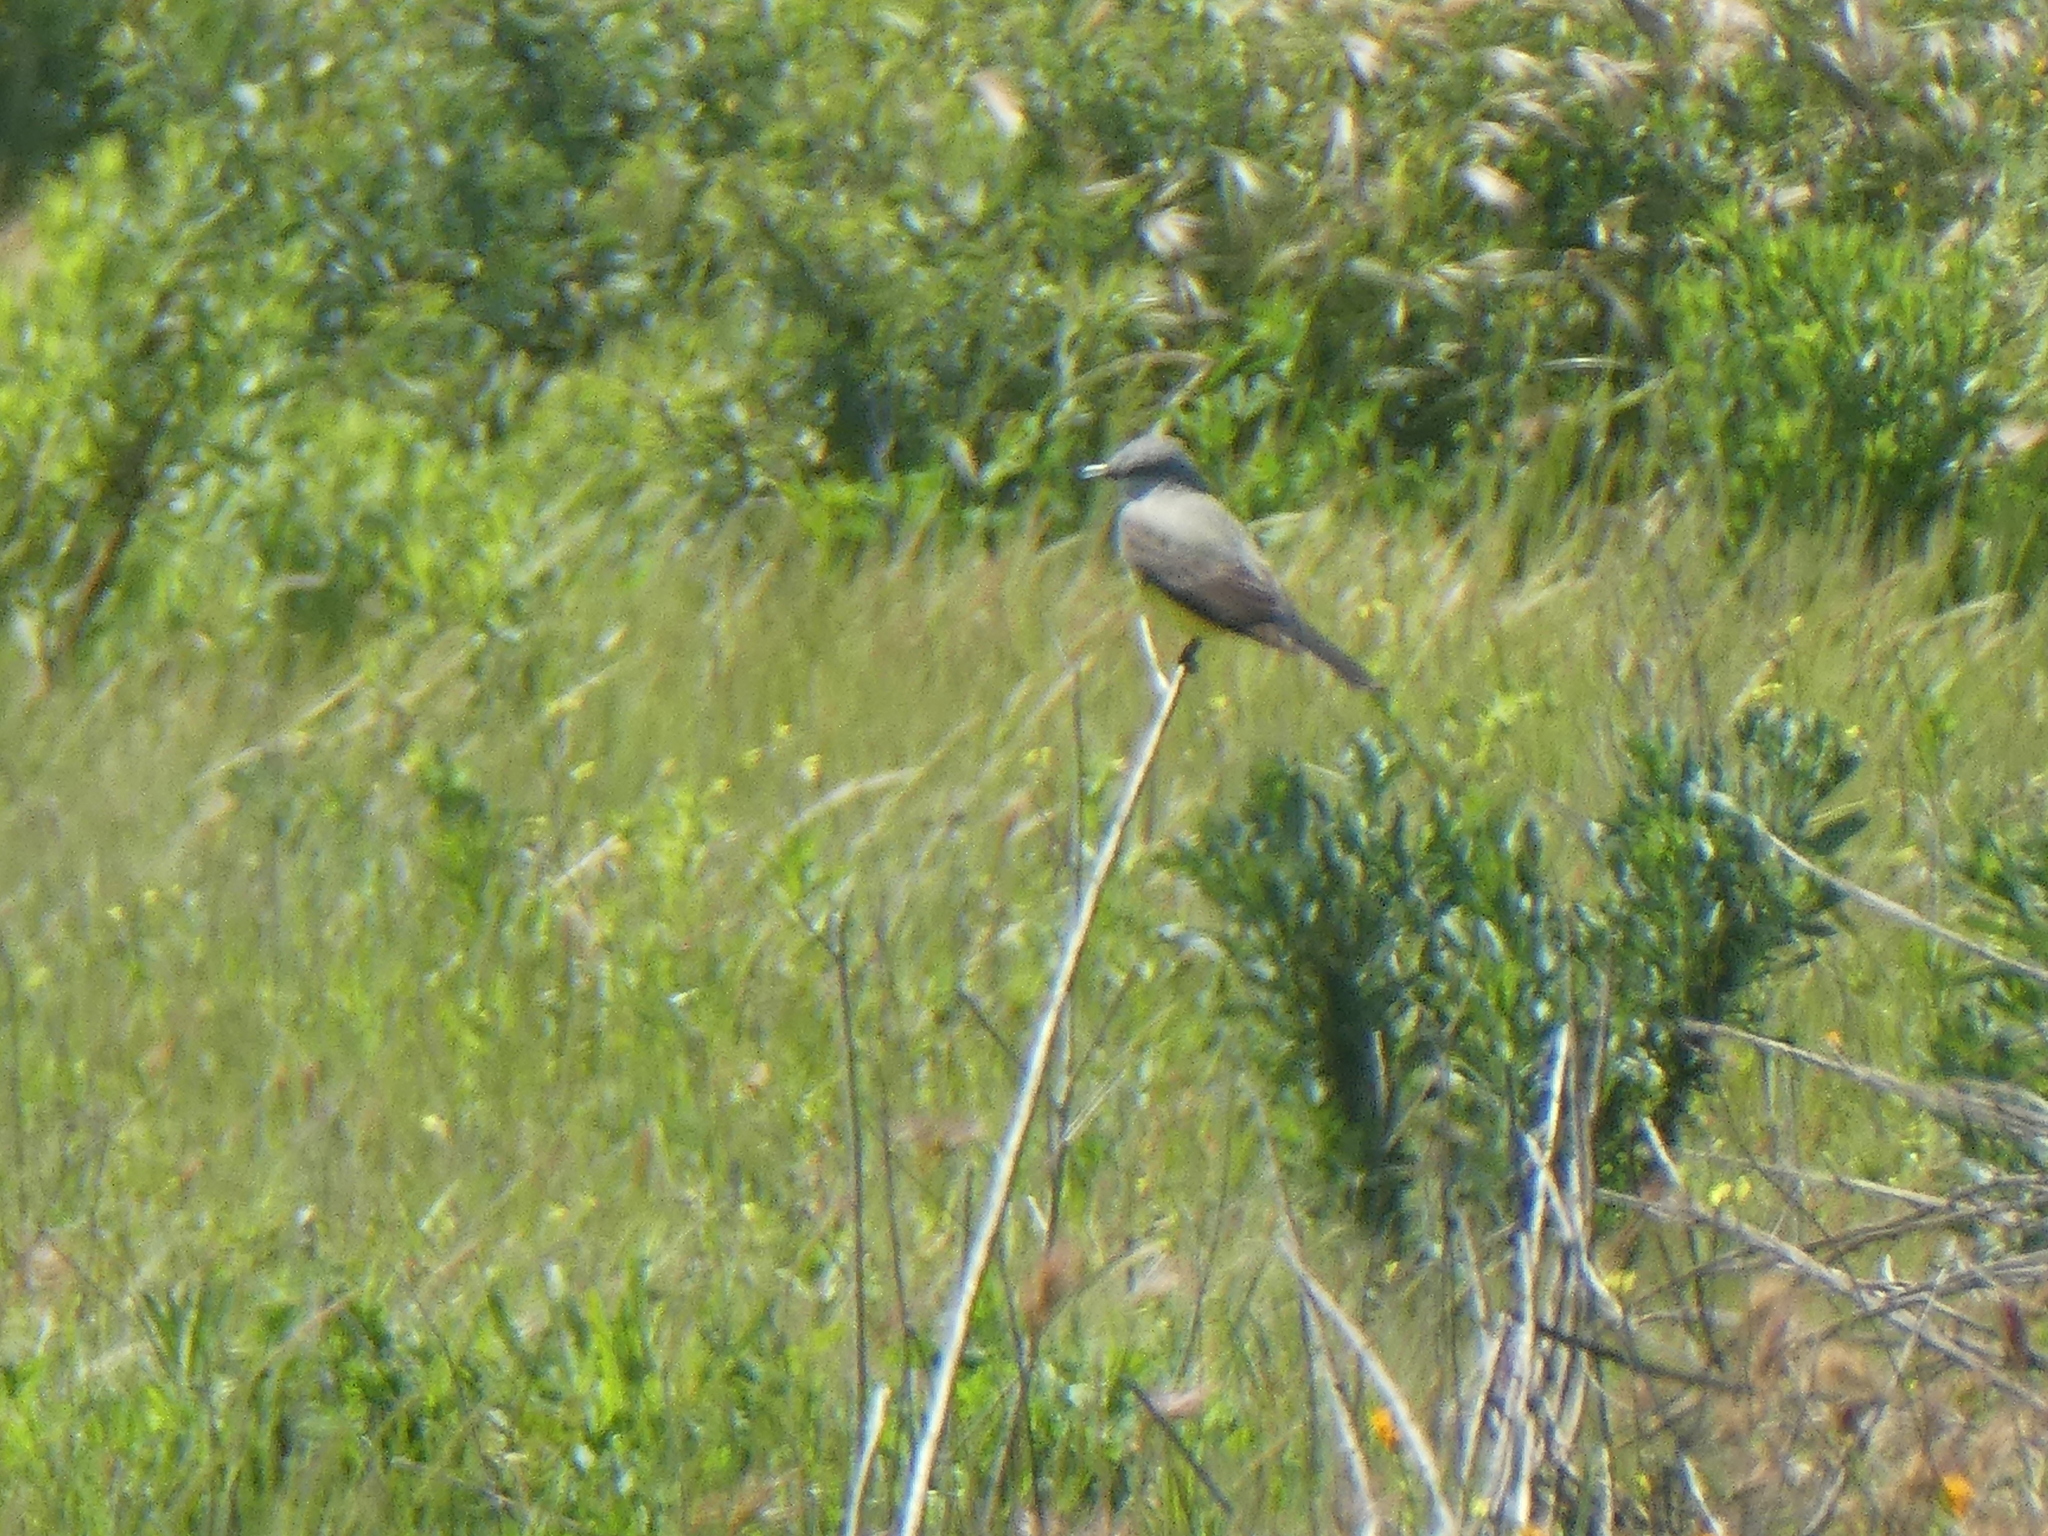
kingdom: Animalia
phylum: Chordata
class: Aves
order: Passeriformes
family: Tyrannidae
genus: Tyrannus
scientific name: Tyrannus verticalis
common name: Western kingbird
